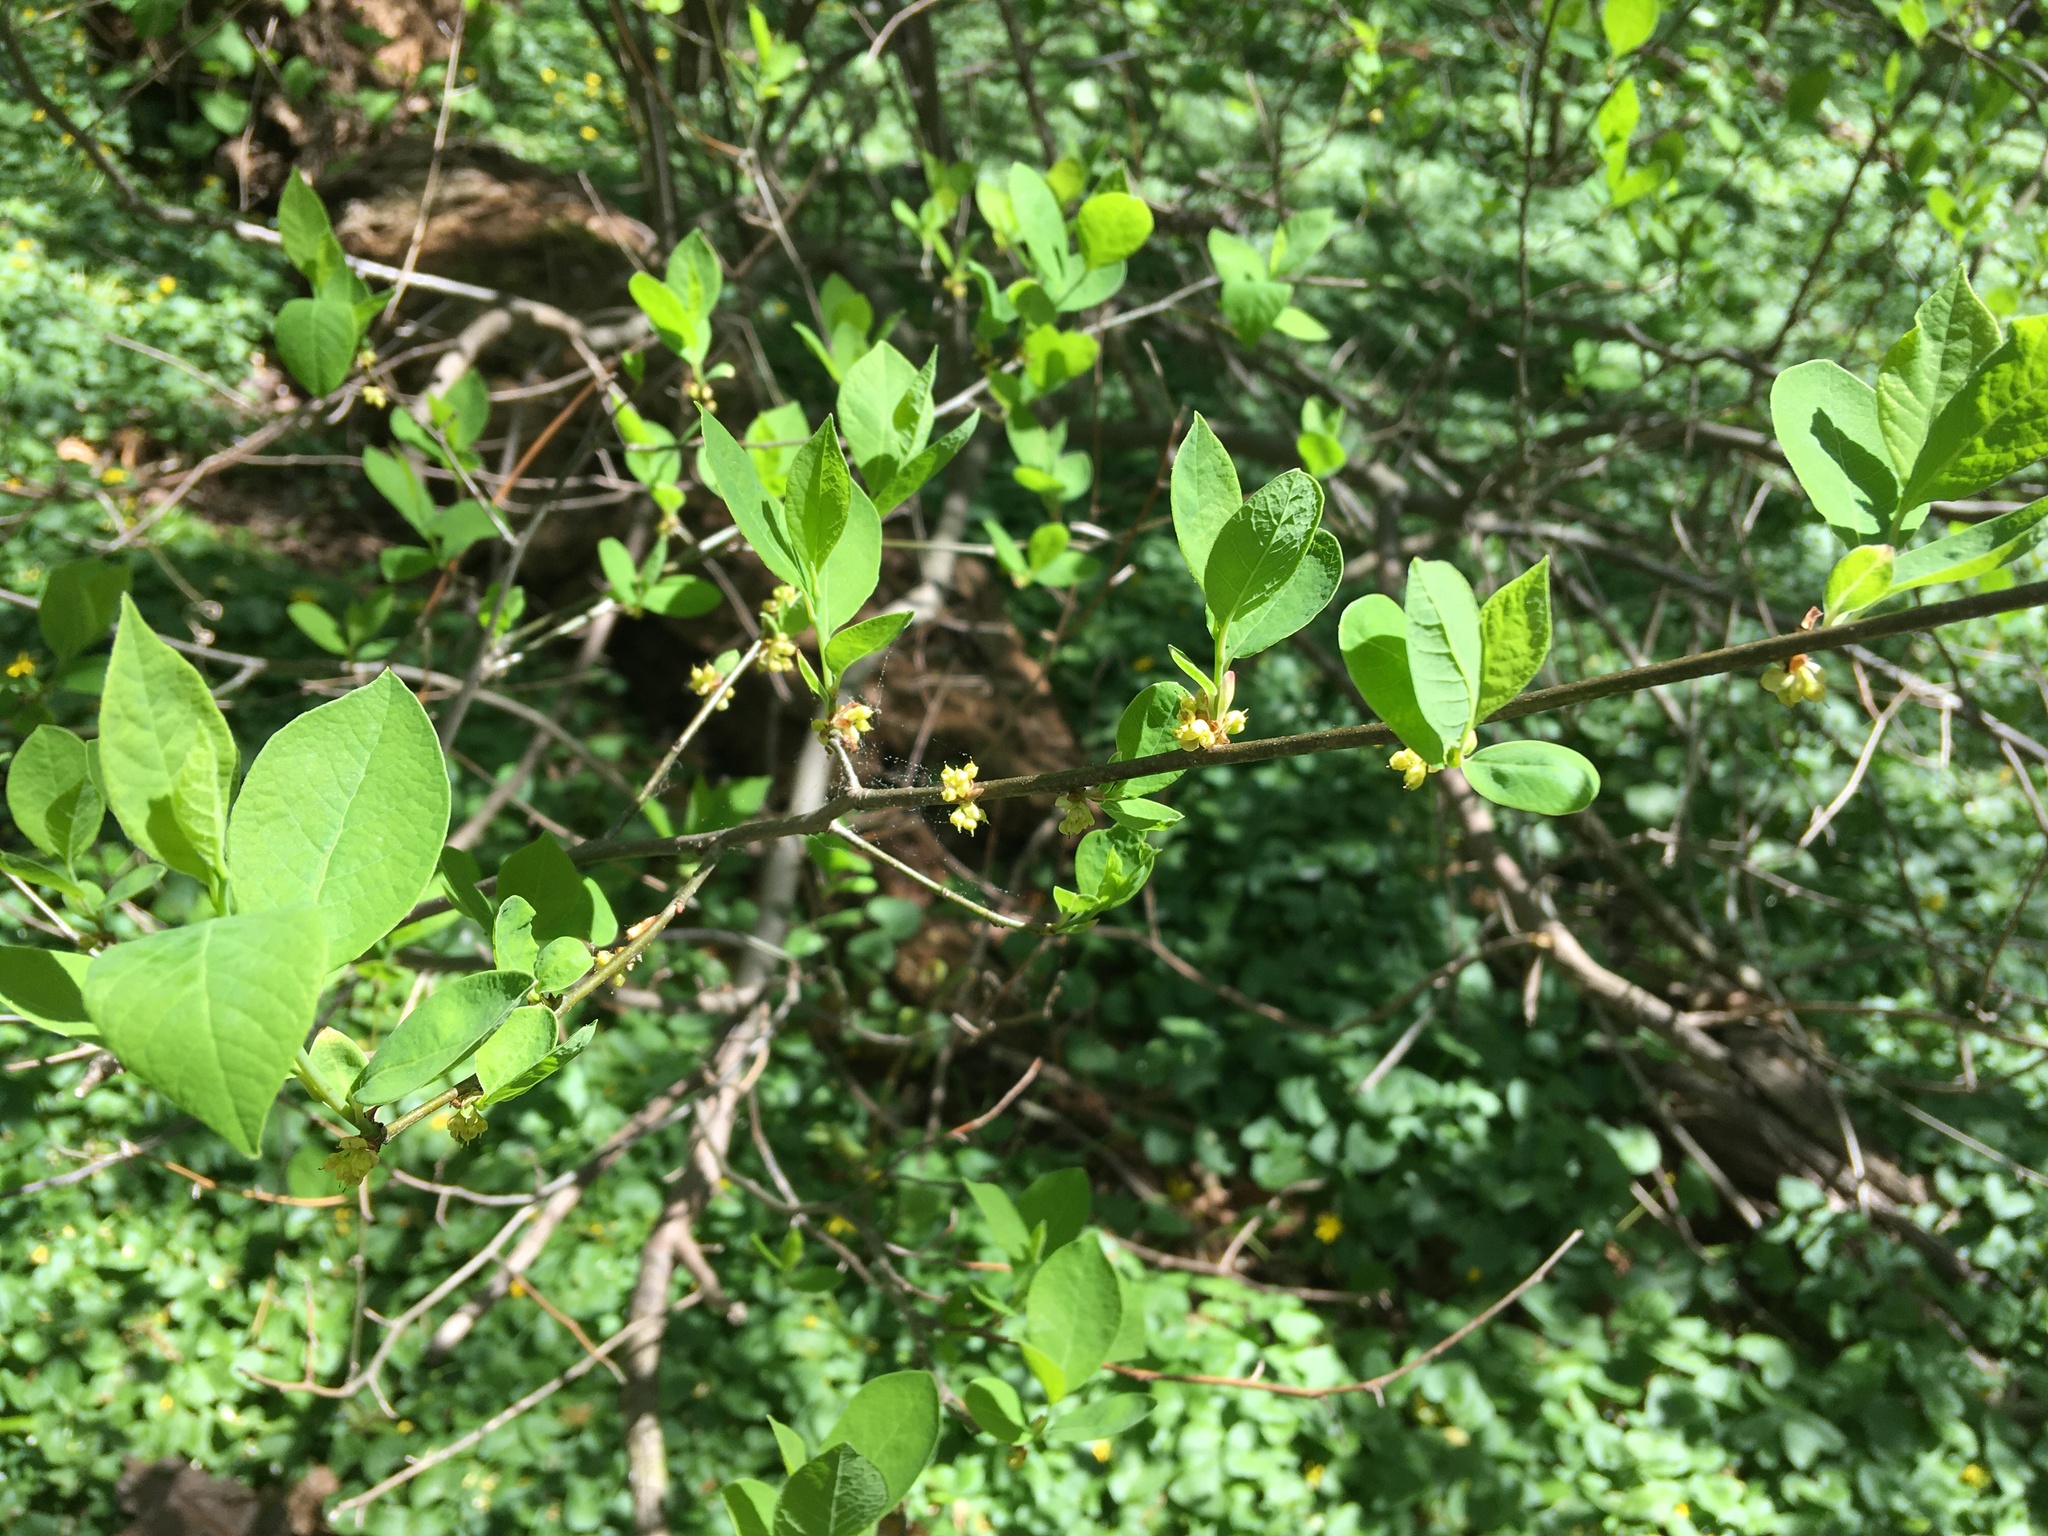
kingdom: Plantae
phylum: Tracheophyta
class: Magnoliopsida
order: Laurales
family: Lauraceae
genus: Lindera
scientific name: Lindera benzoin
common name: Spicebush
